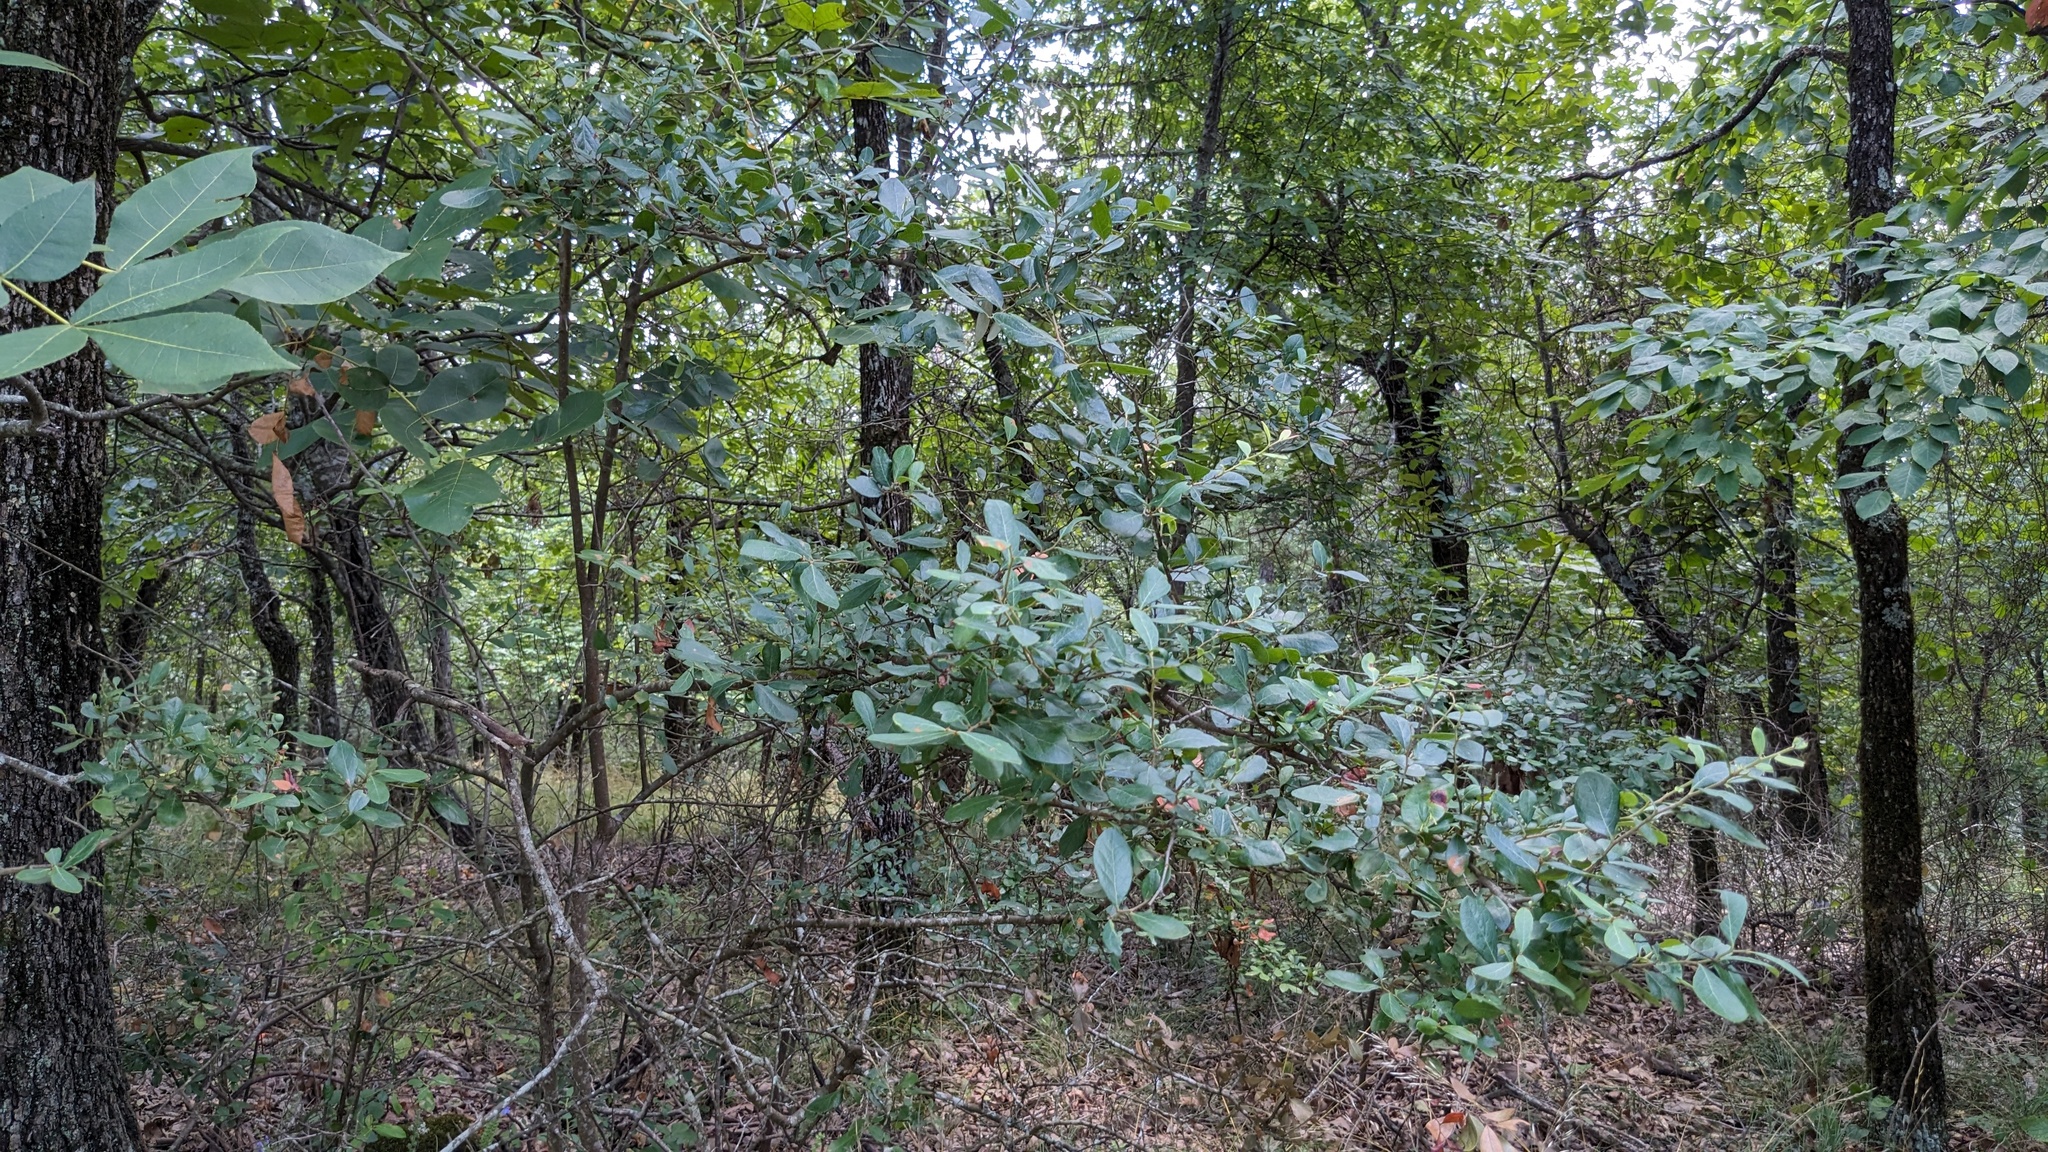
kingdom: Plantae
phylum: Tracheophyta
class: Magnoliopsida
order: Ericales
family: Ericaceae
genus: Vaccinium
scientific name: Vaccinium arboreum
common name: Farkleberry
